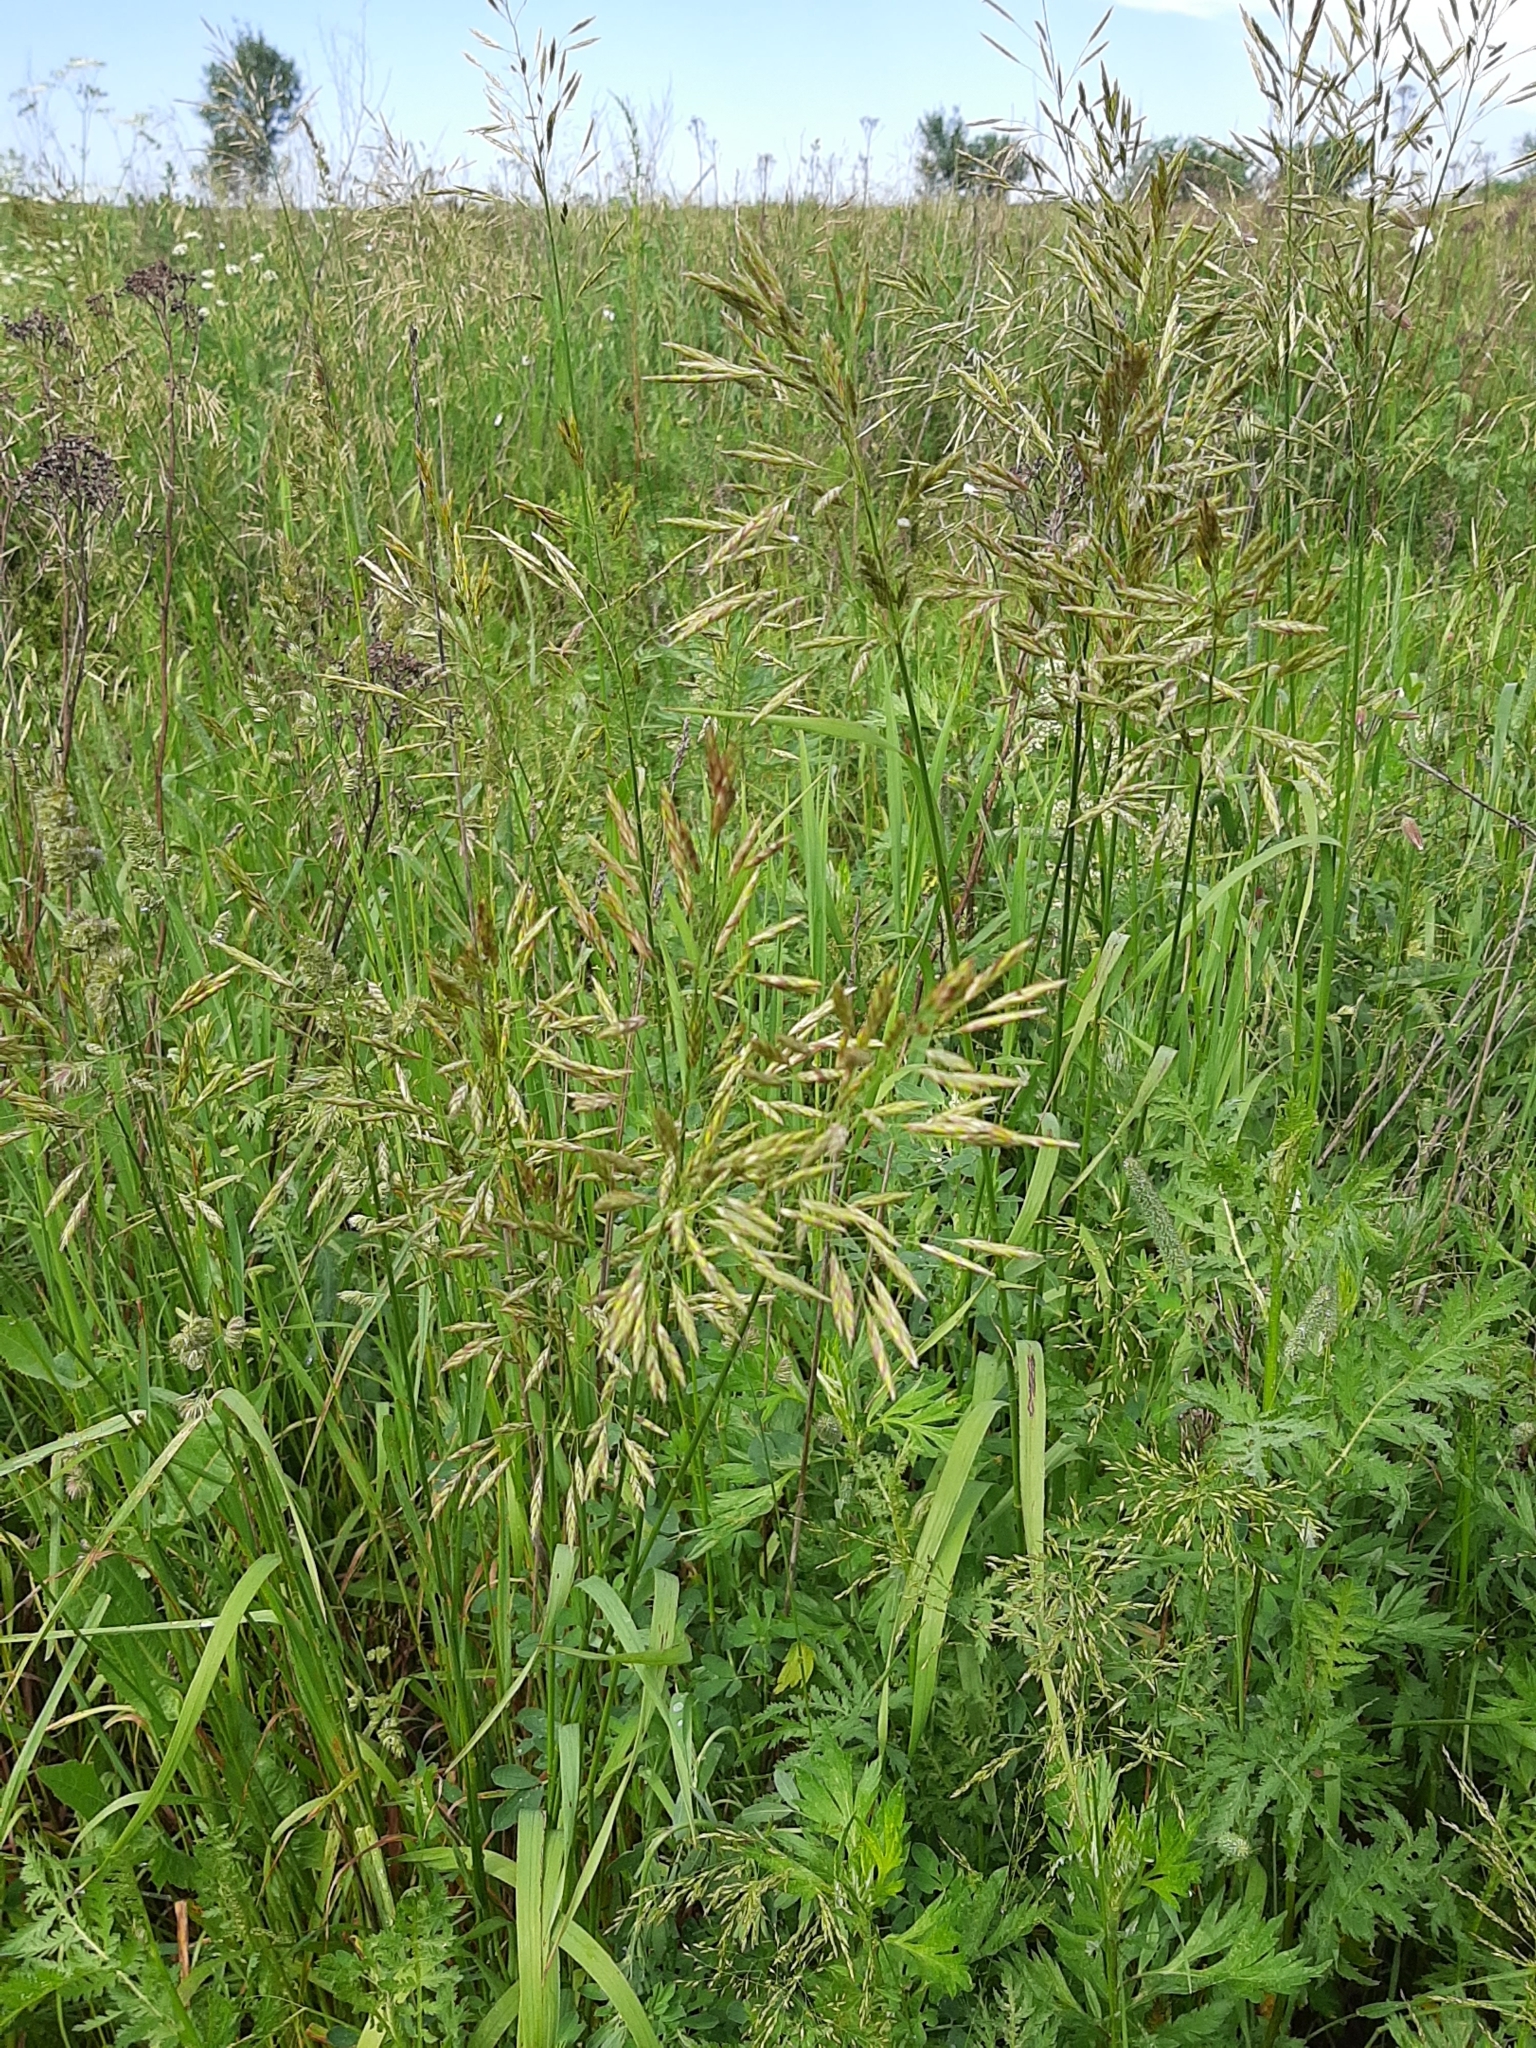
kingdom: Plantae
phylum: Tracheophyta
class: Liliopsida
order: Poales
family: Poaceae
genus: Bromus
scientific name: Bromus inermis
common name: Smooth brome
